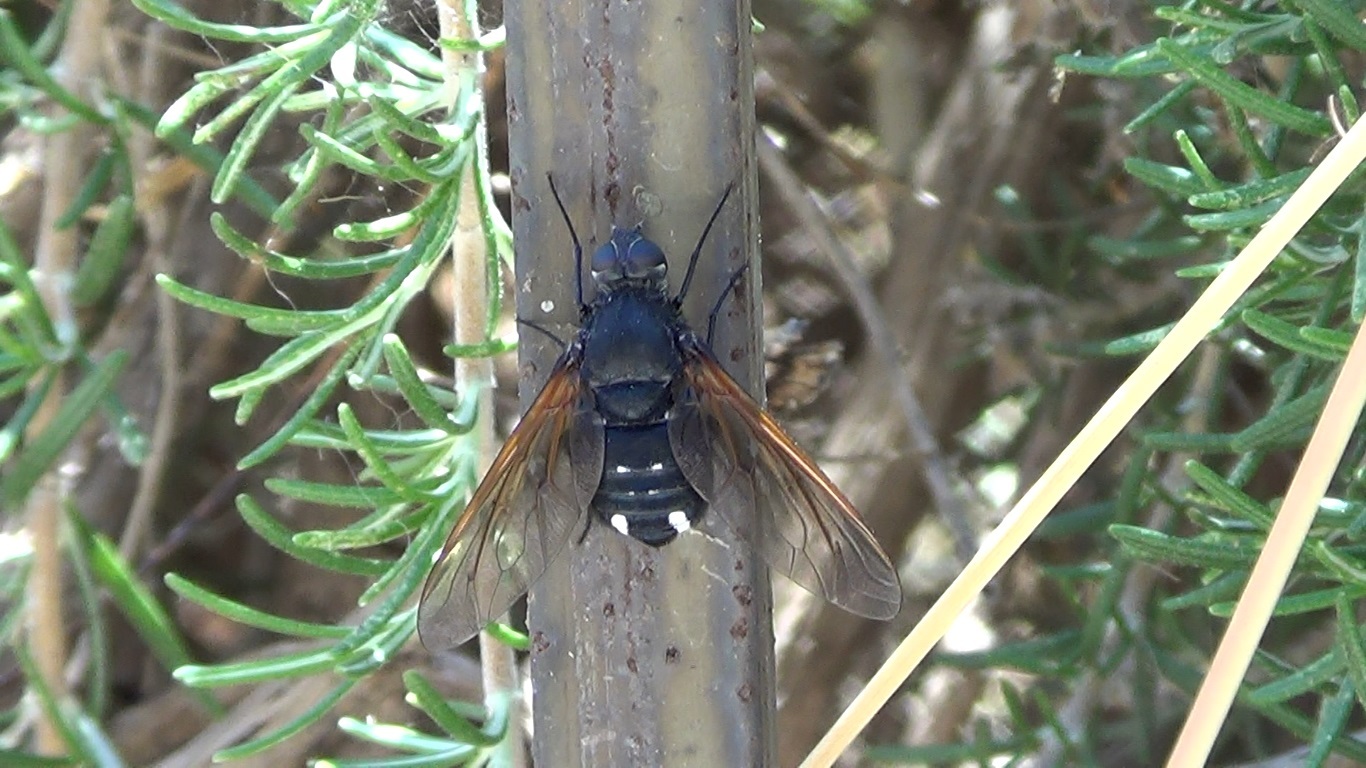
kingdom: Animalia
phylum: Arthropoda
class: Insecta
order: Diptera
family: Bombyliidae
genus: Satyramoeba
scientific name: Satyramoeba hetrusca
